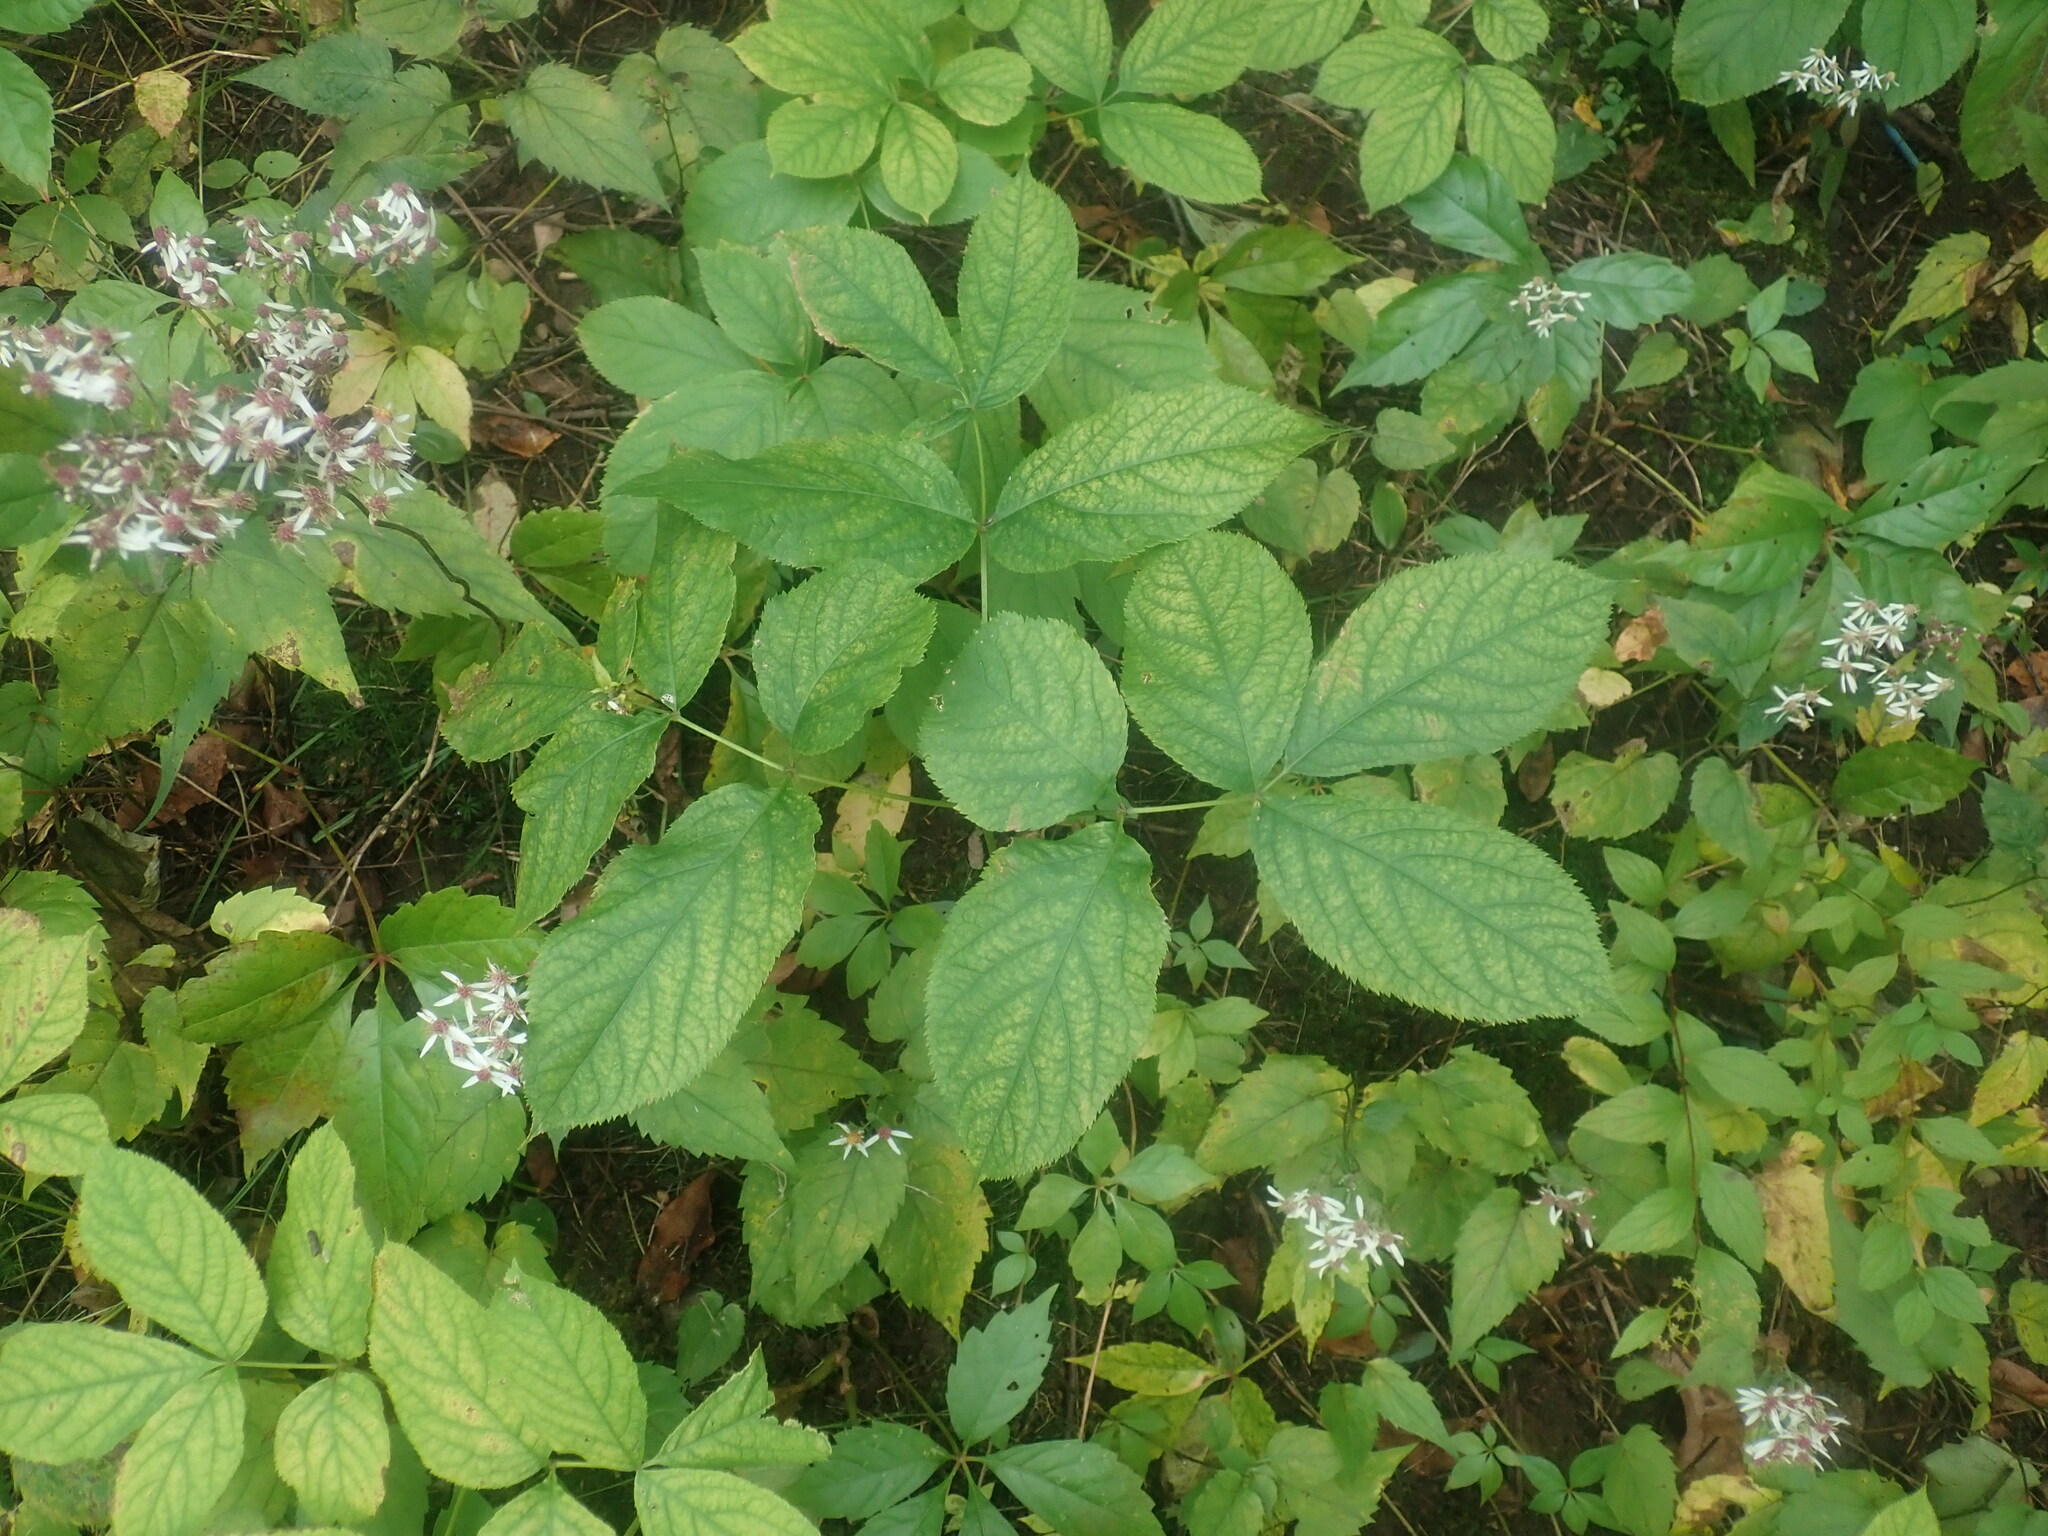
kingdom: Plantae
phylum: Tracheophyta
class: Magnoliopsida
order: Apiales
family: Araliaceae
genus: Aralia
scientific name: Aralia nudicaulis
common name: Wild sarsaparilla
